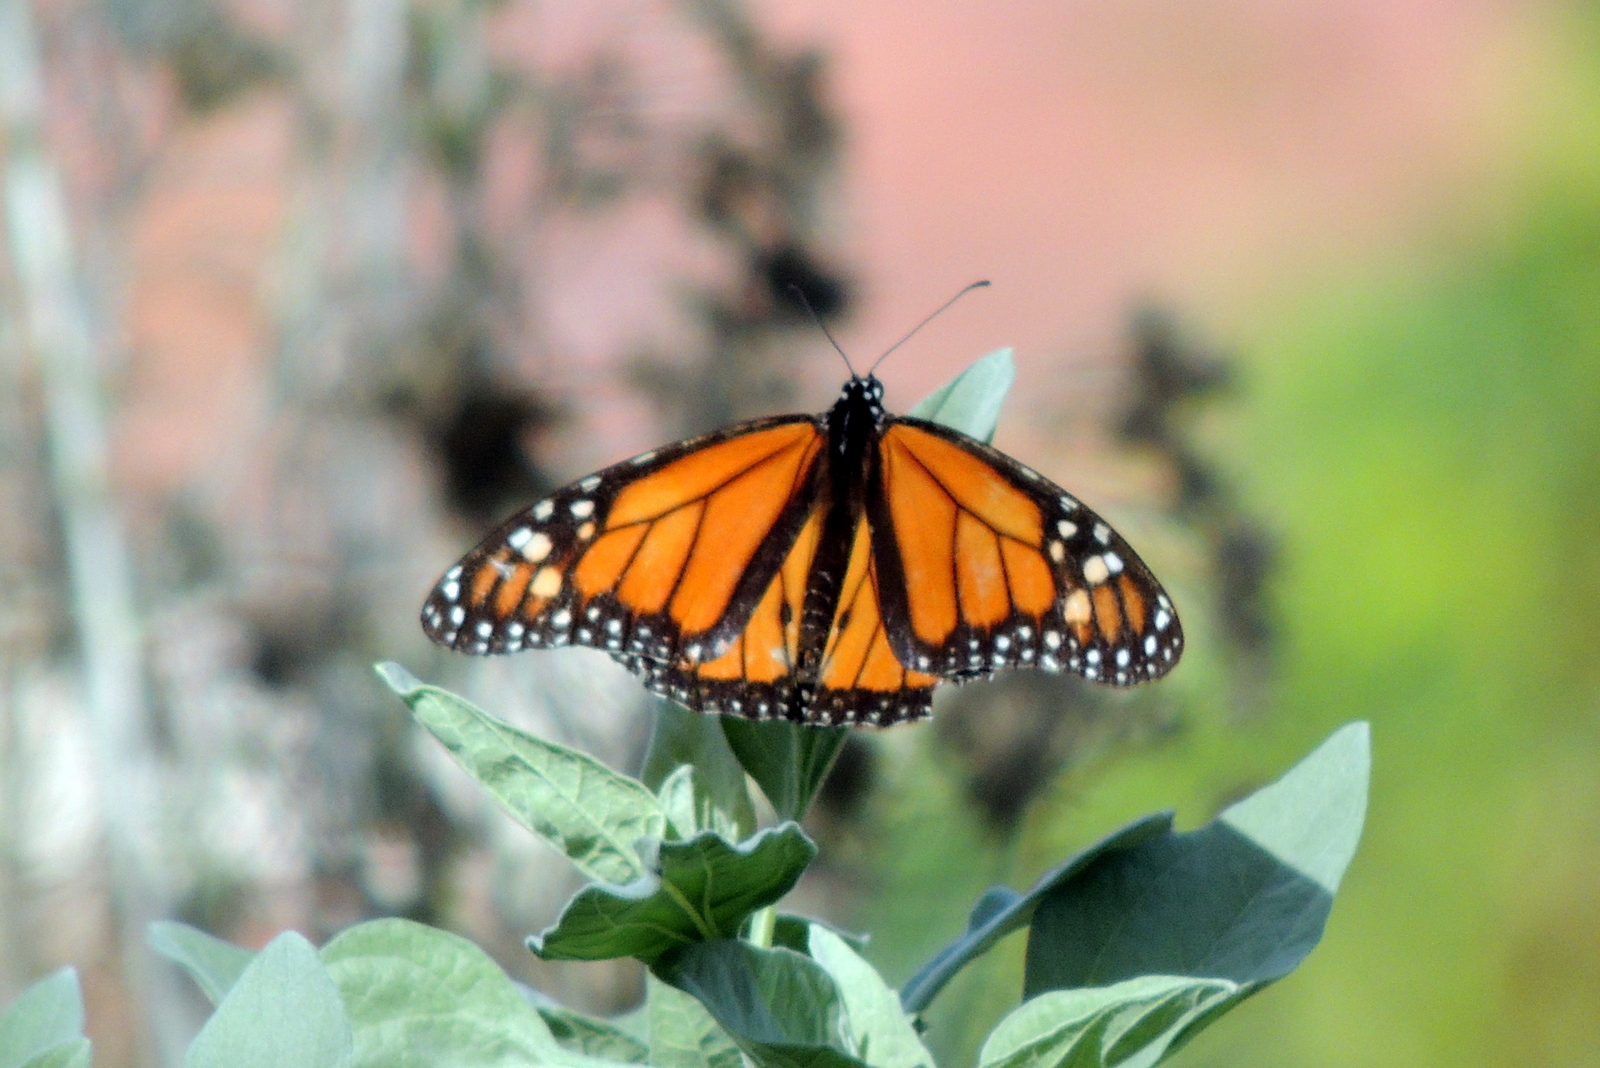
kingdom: Animalia
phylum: Arthropoda
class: Insecta
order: Lepidoptera
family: Nymphalidae
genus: Danaus
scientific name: Danaus plexippus
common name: Monarch
